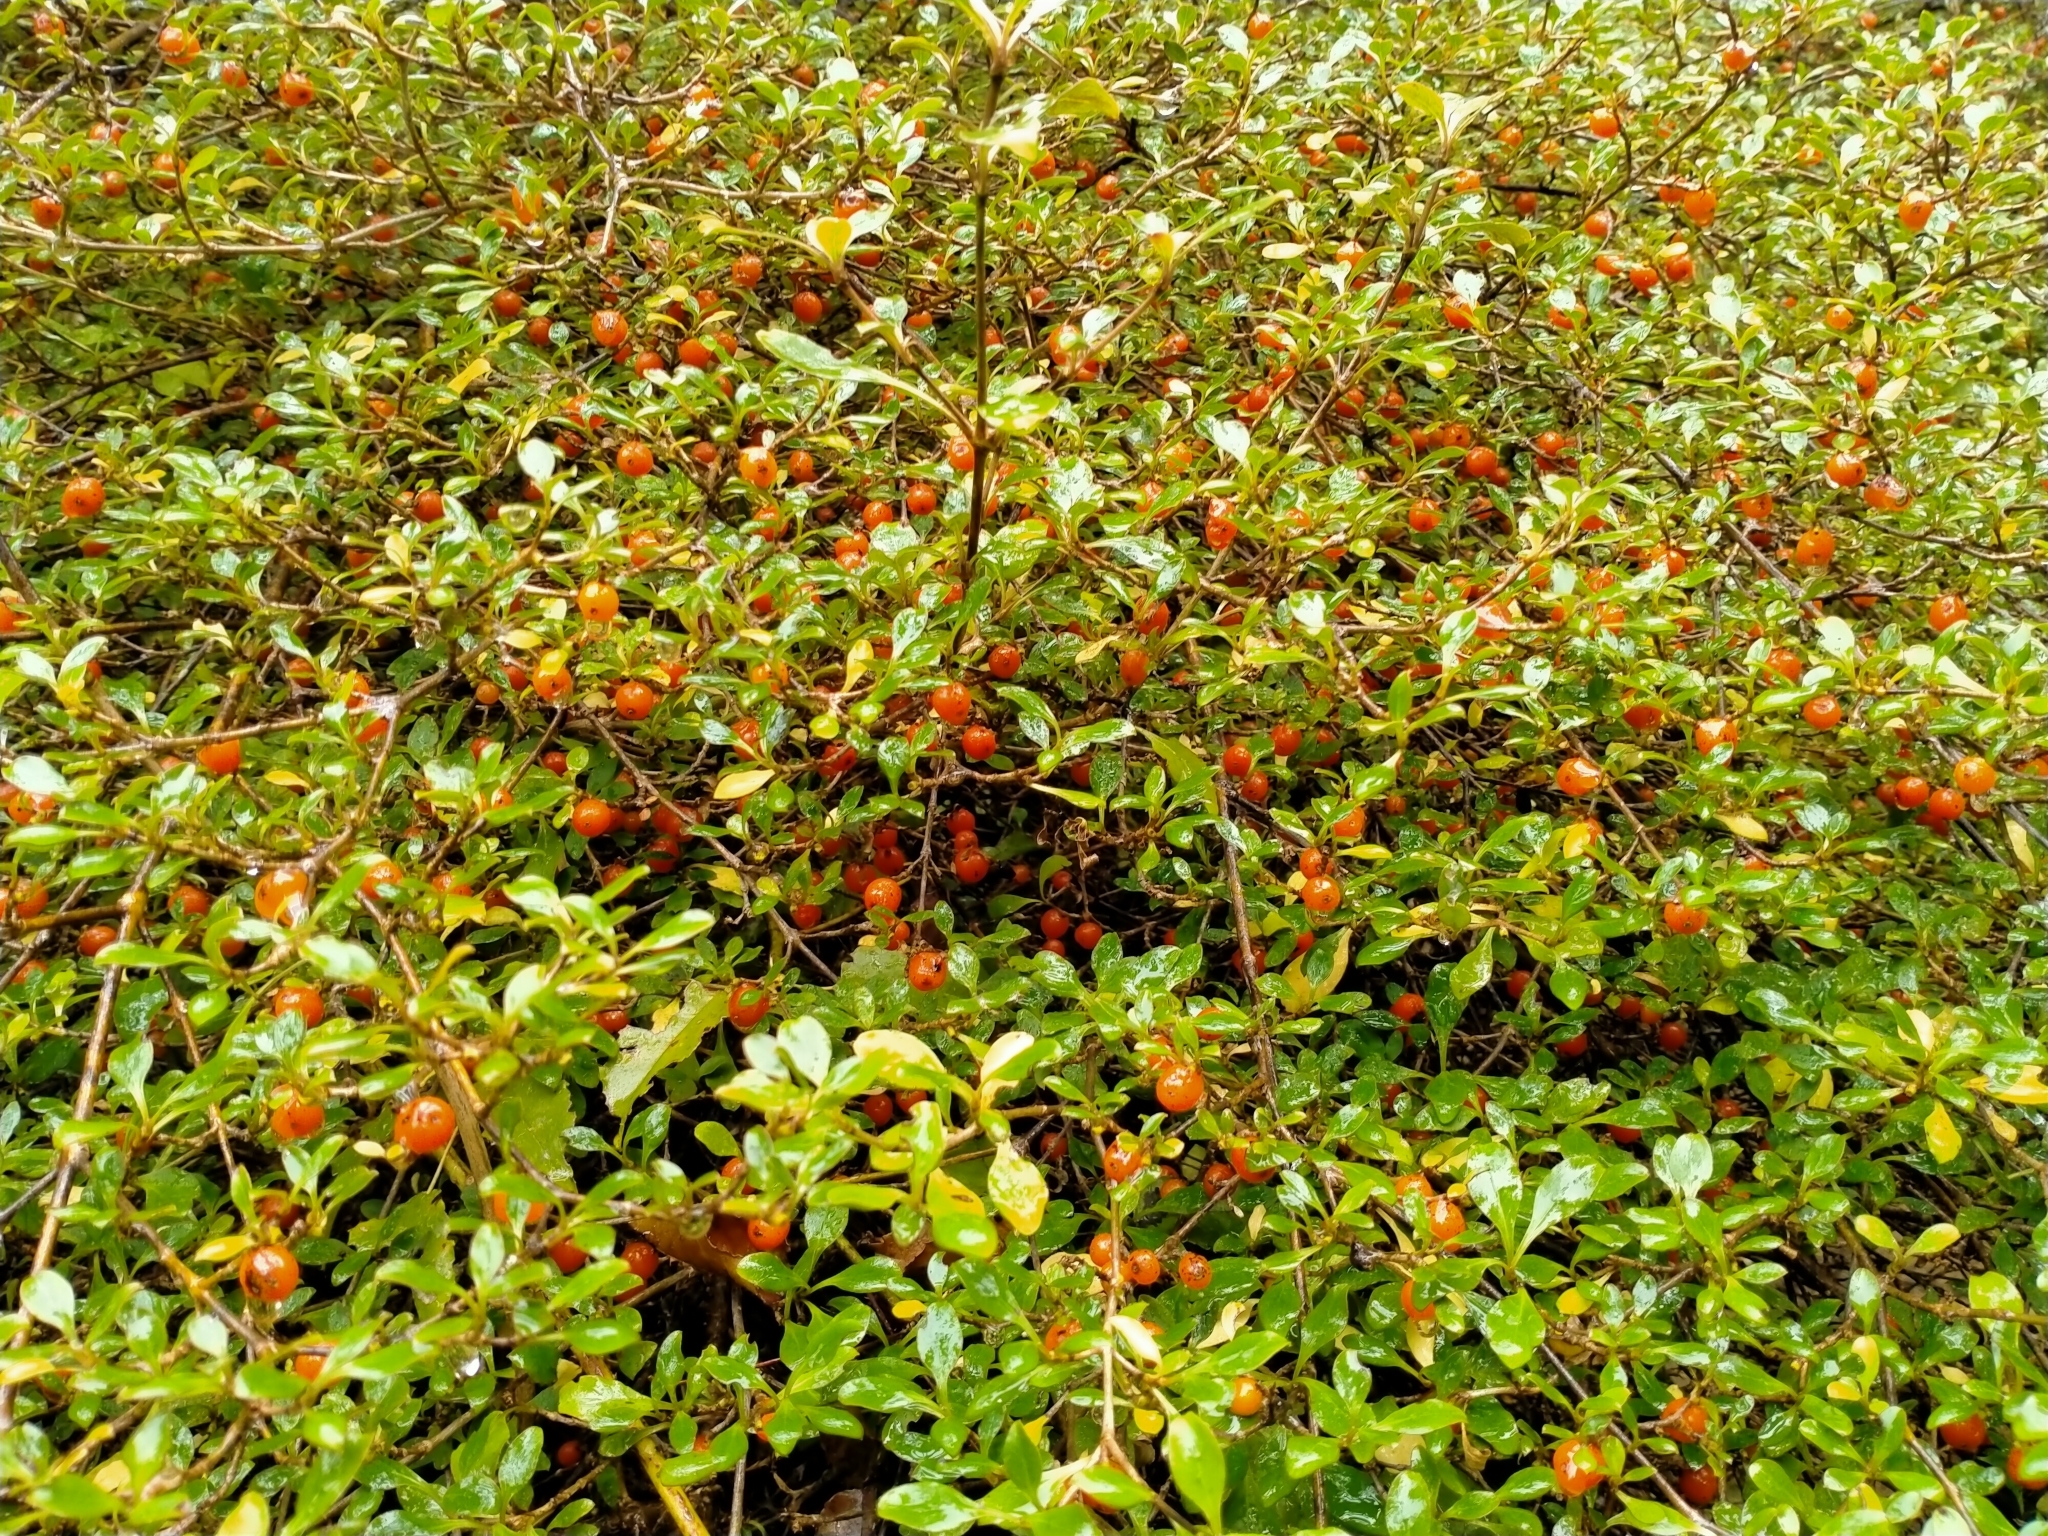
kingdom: Plantae
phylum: Tracheophyta
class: Magnoliopsida
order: Gentianales
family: Rubiaceae
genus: Coprosma
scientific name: Coprosma foetidissima
